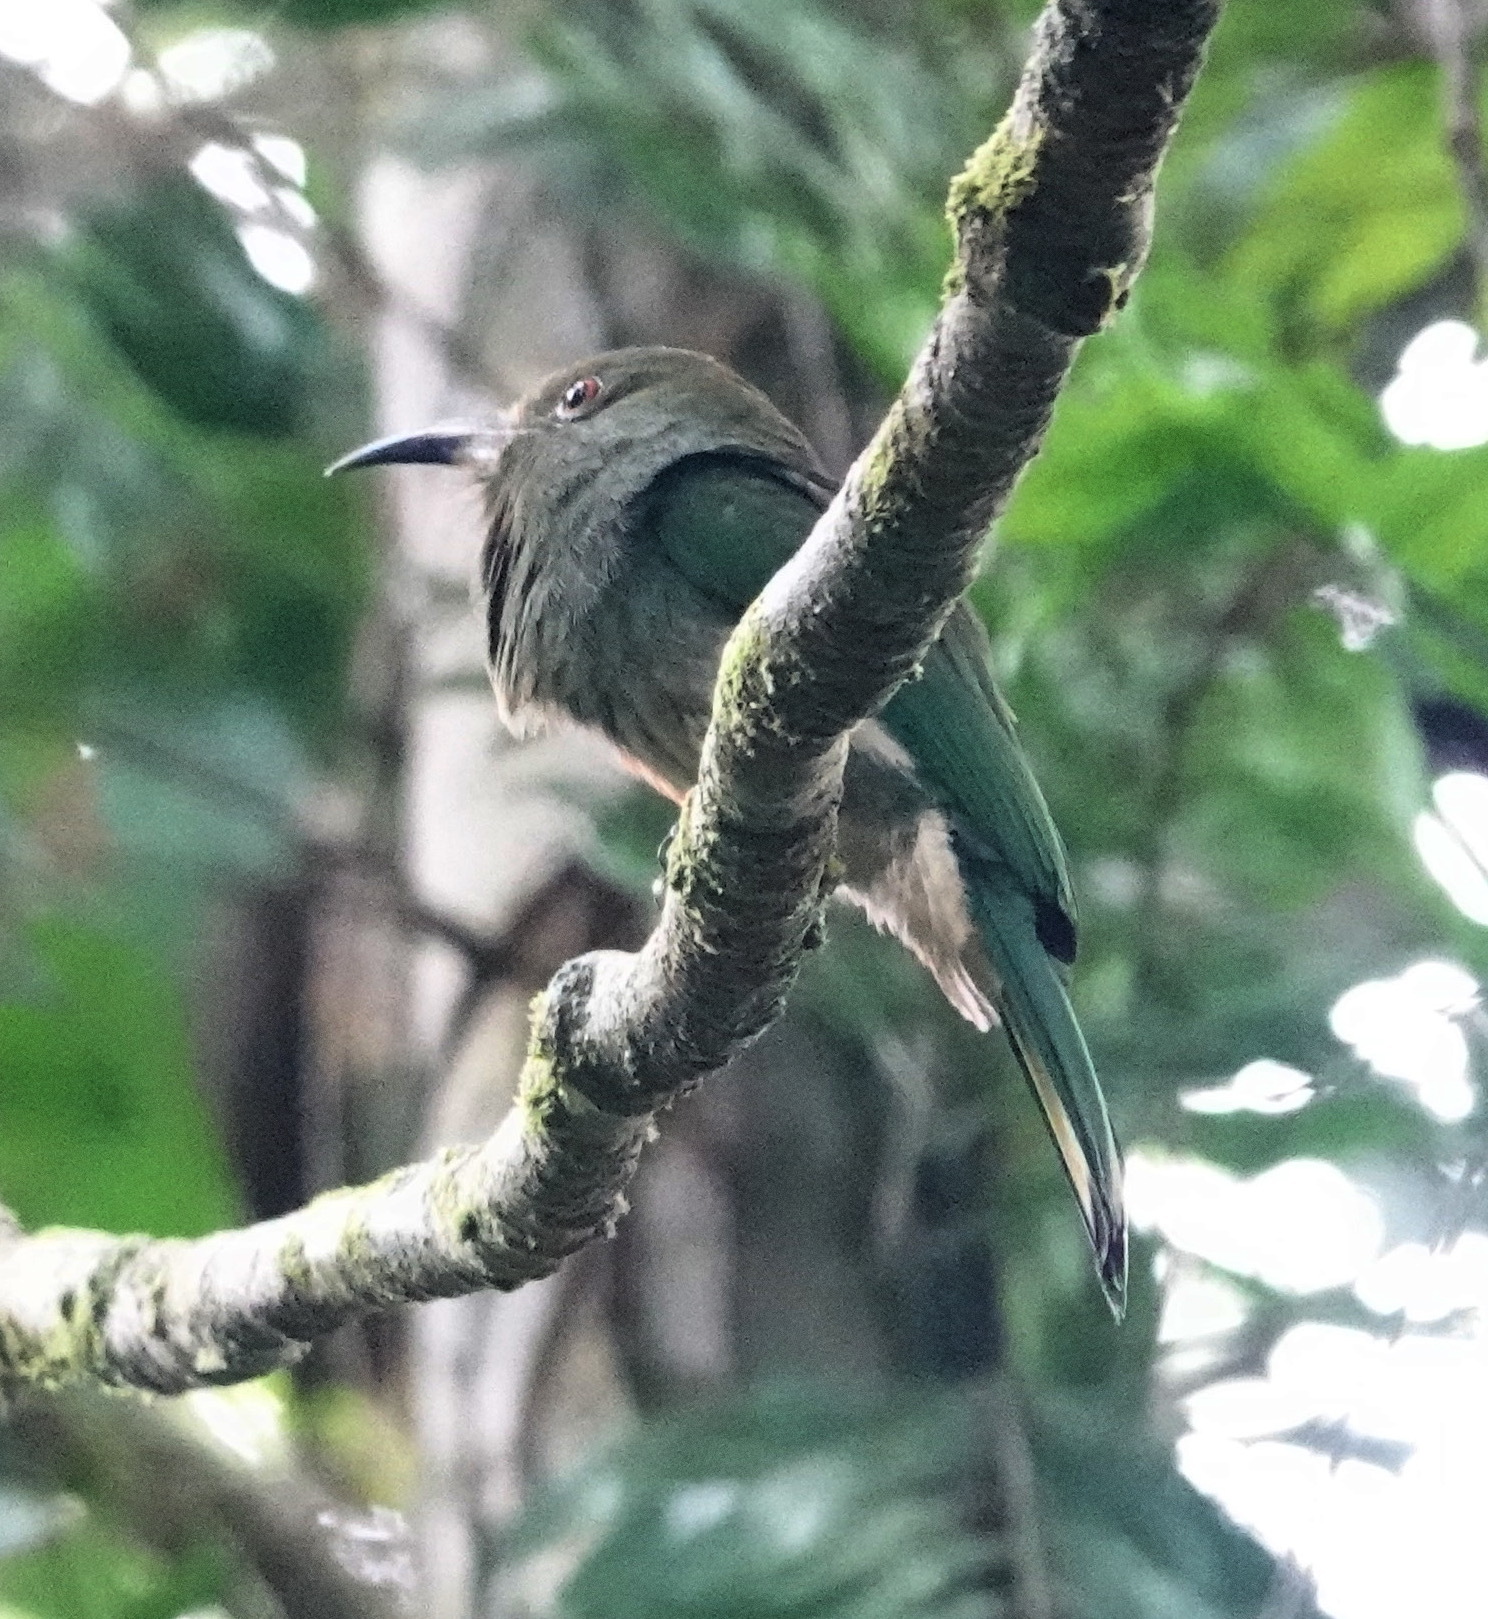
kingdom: Animalia
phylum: Chordata
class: Aves
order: Coraciiformes
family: Meropidae
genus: Nyctyornis
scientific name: Nyctyornis amictus
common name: Red-bearded bee-eater
